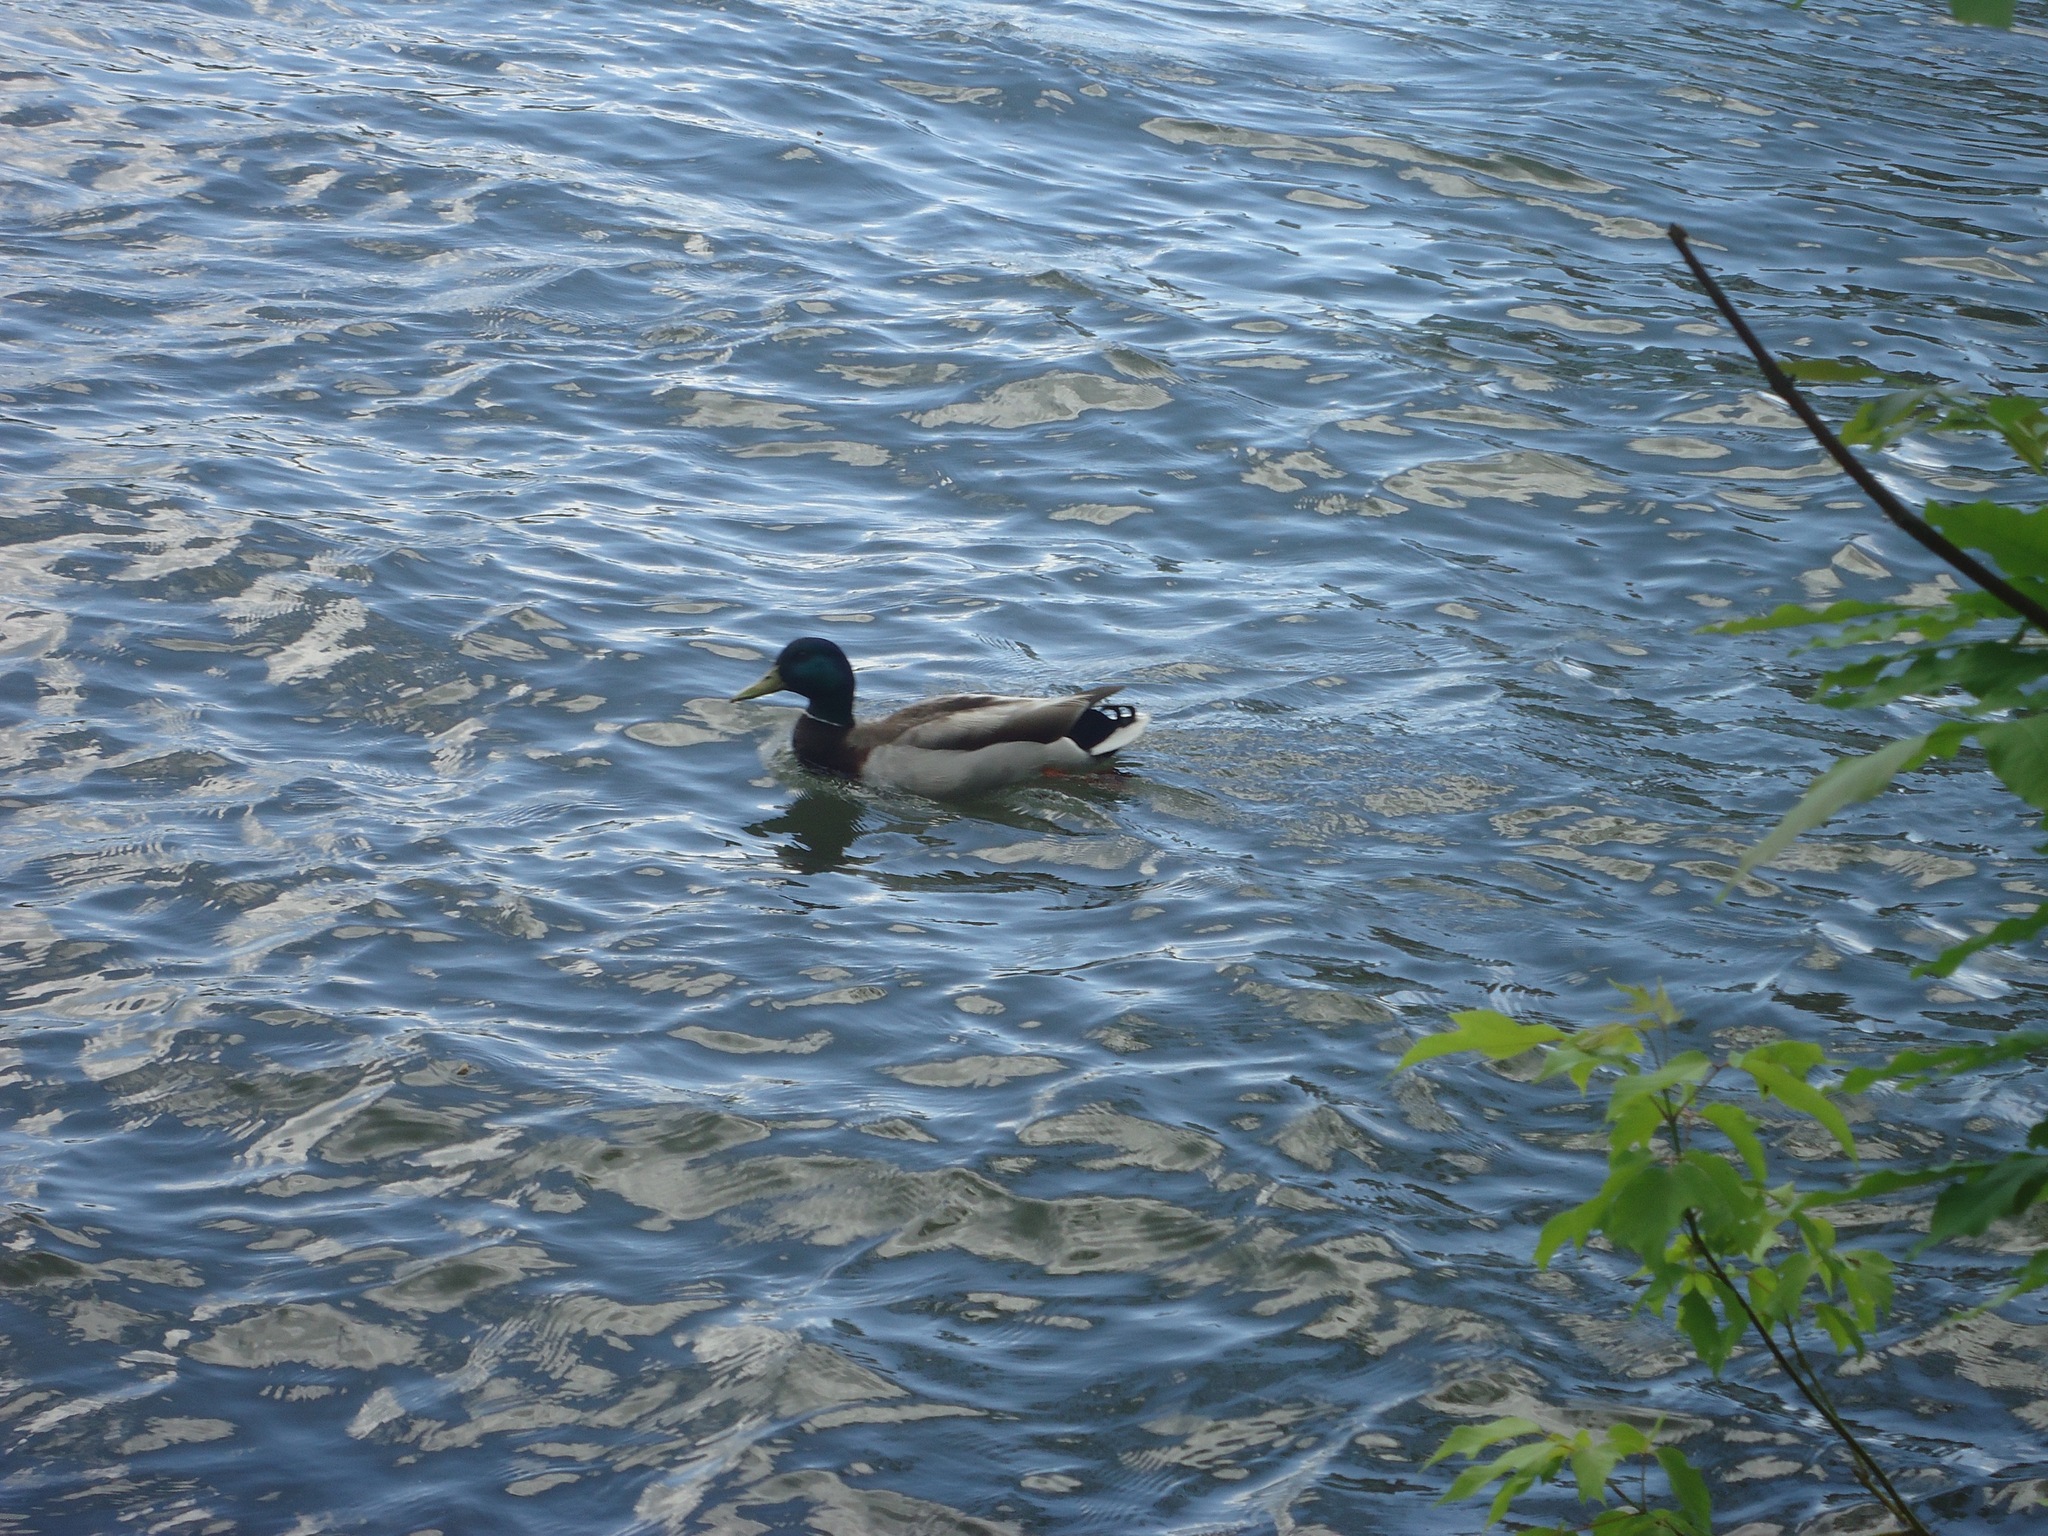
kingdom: Animalia
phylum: Chordata
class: Aves
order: Anseriformes
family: Anatidae
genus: Anas
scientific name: Anas platyrhynchos
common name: Mallard
